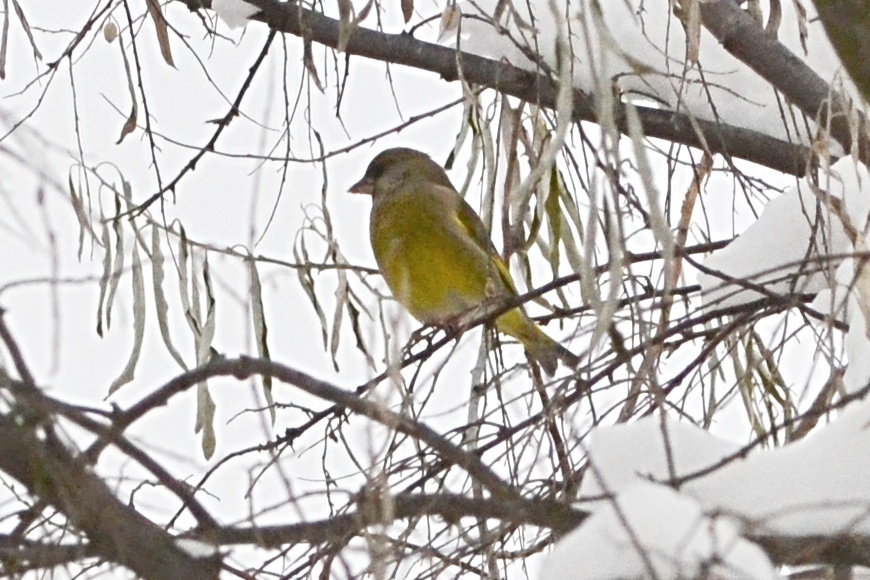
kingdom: Plantae
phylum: Tracheophyta
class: Liliopsida
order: Poales
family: Poaceae
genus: Chloris
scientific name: Chloris chloris
